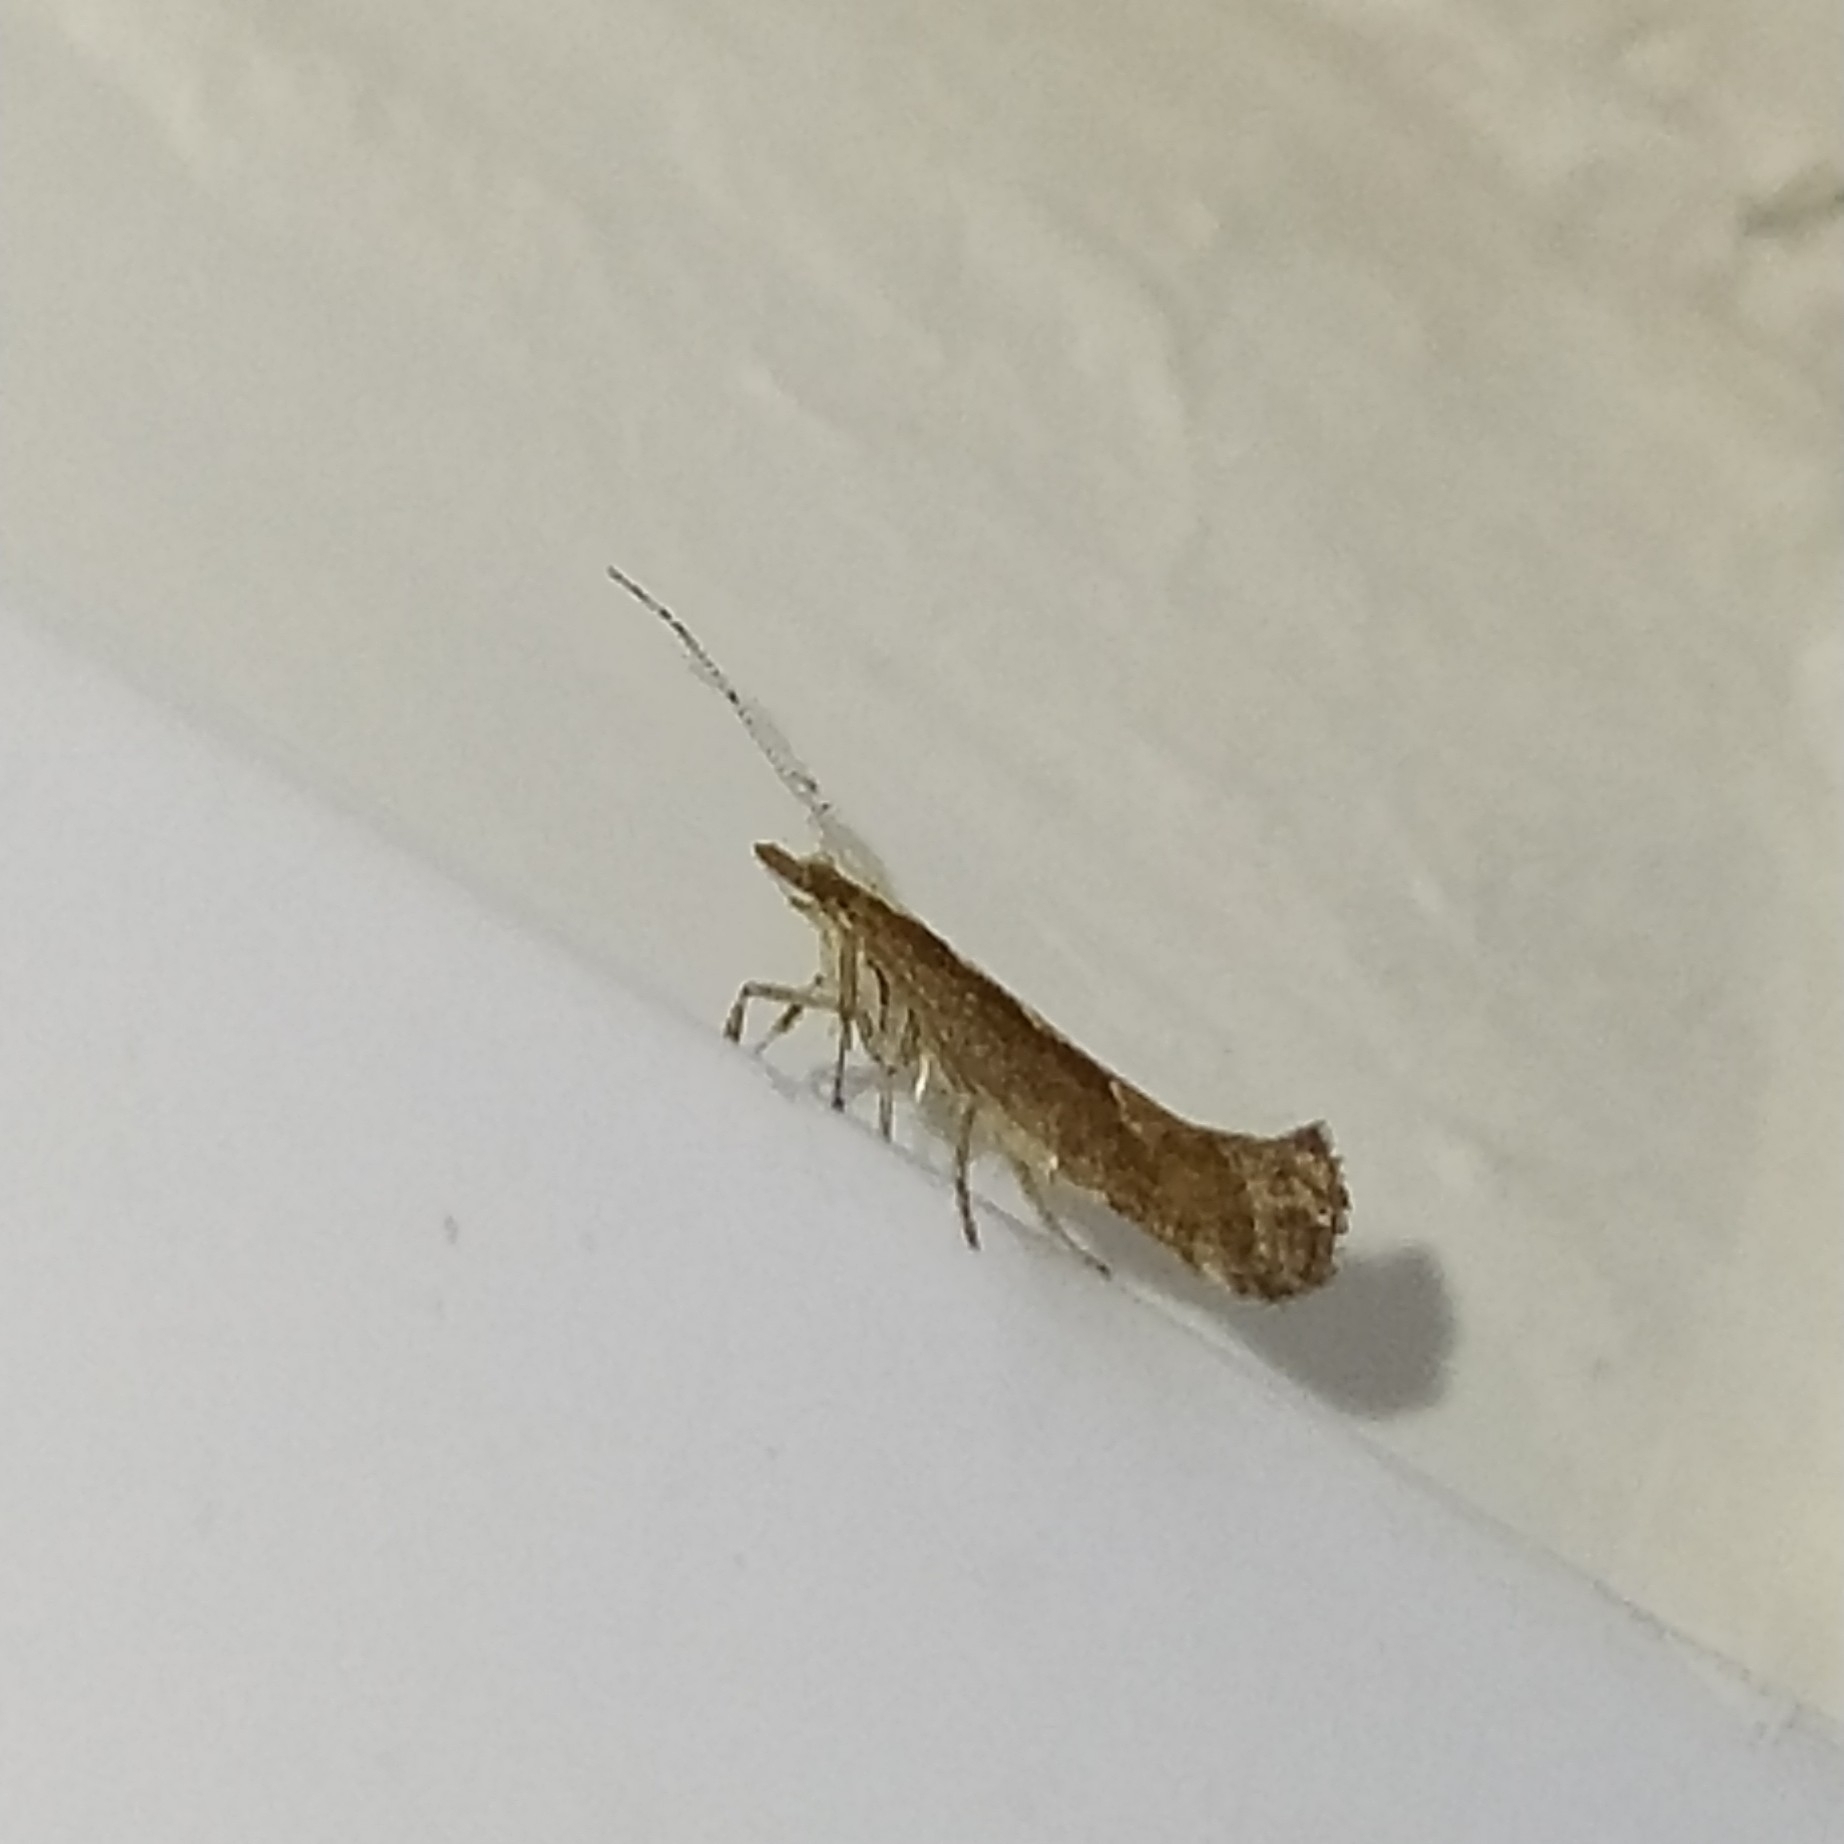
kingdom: Animalia
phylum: Arthropoda
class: Insecta
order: Lepidoptera
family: Plutellidae
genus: Plutella
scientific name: Plutella xylostella
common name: Diamond-back moth
